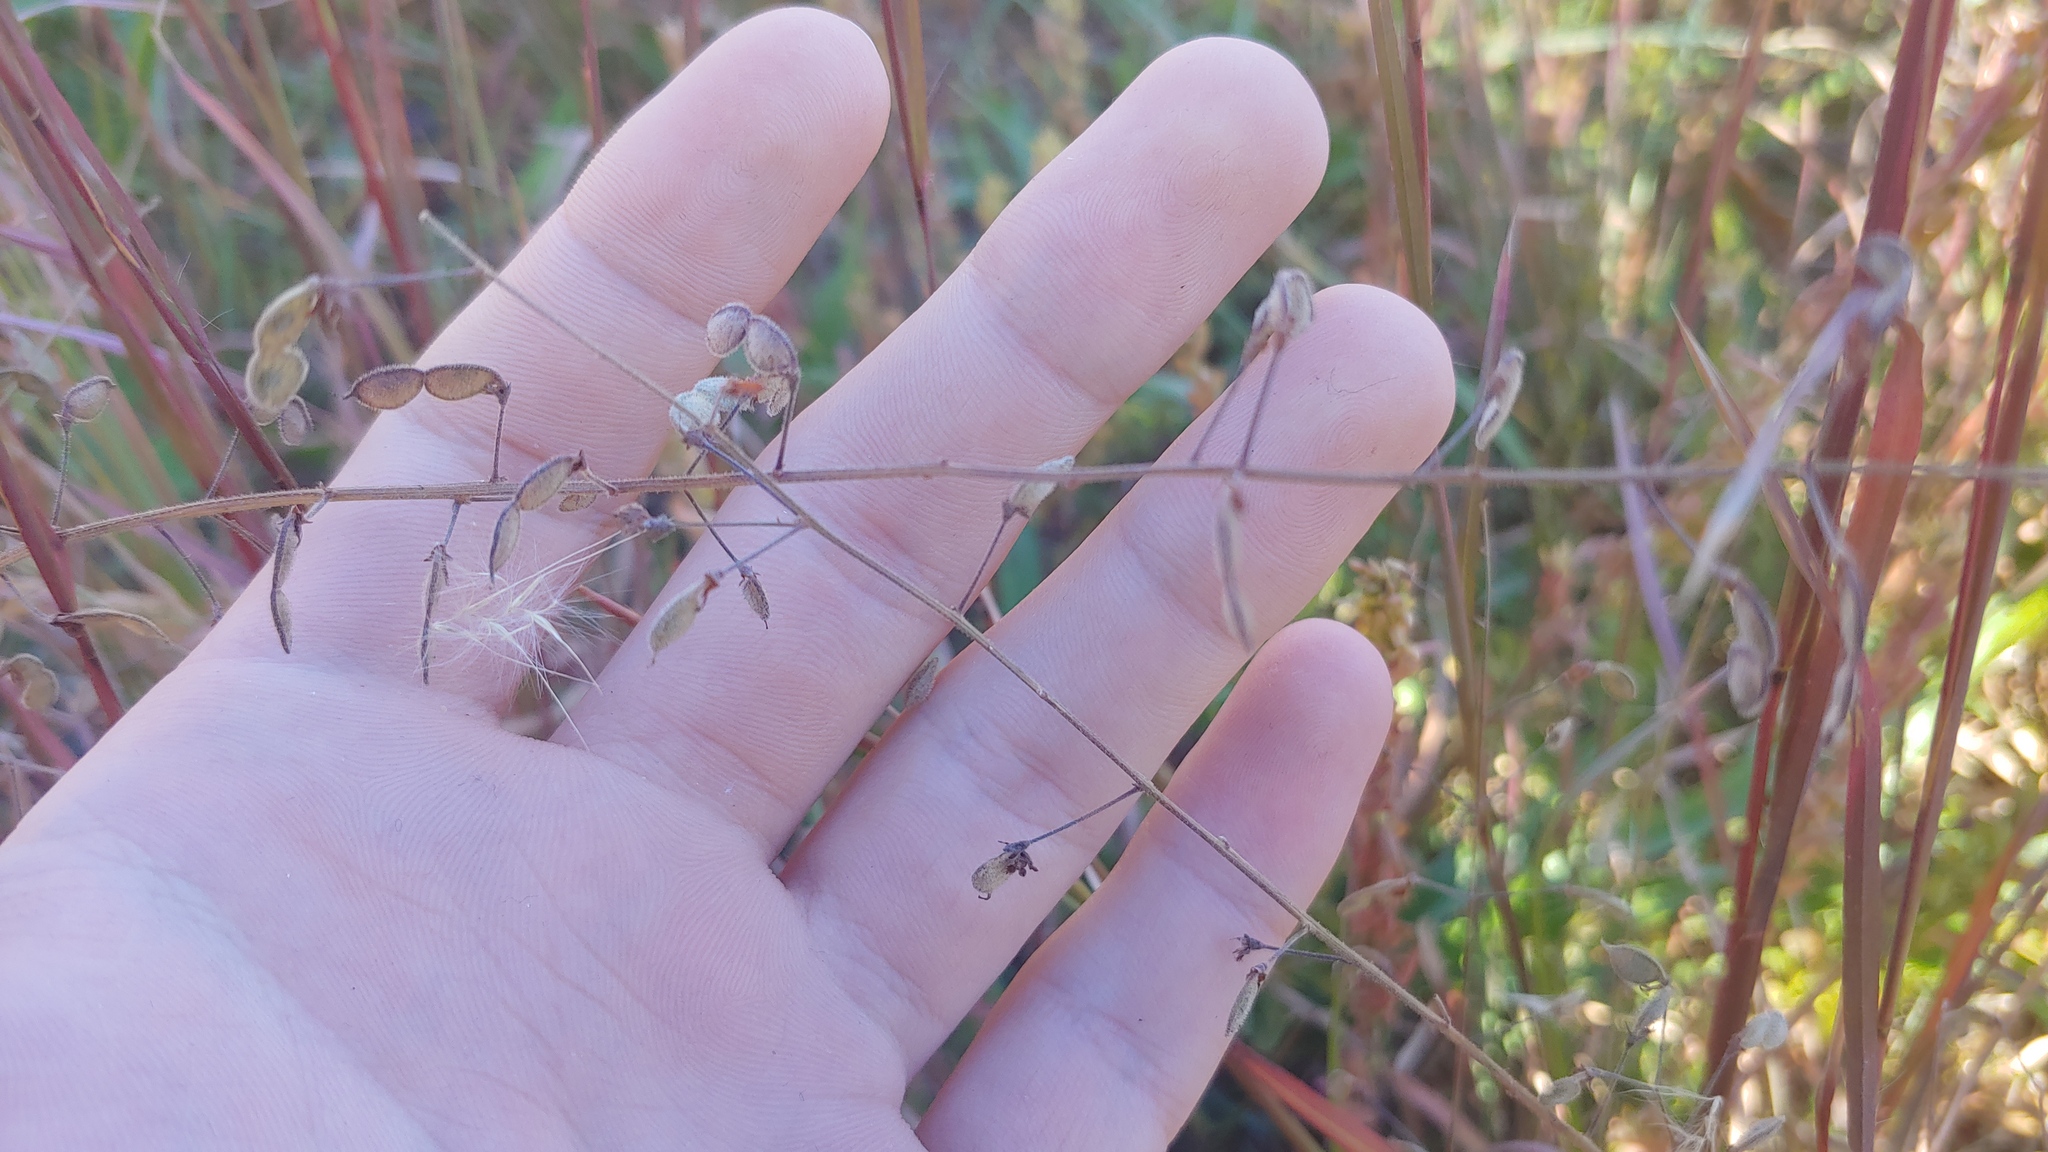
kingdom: Plantae
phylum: Tracheophyta
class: Magnoliopsida
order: Fabales
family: Fabaceae
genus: Desmodium
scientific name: Desmodium ciliare
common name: Hairy small-leaf ticktrefoil
